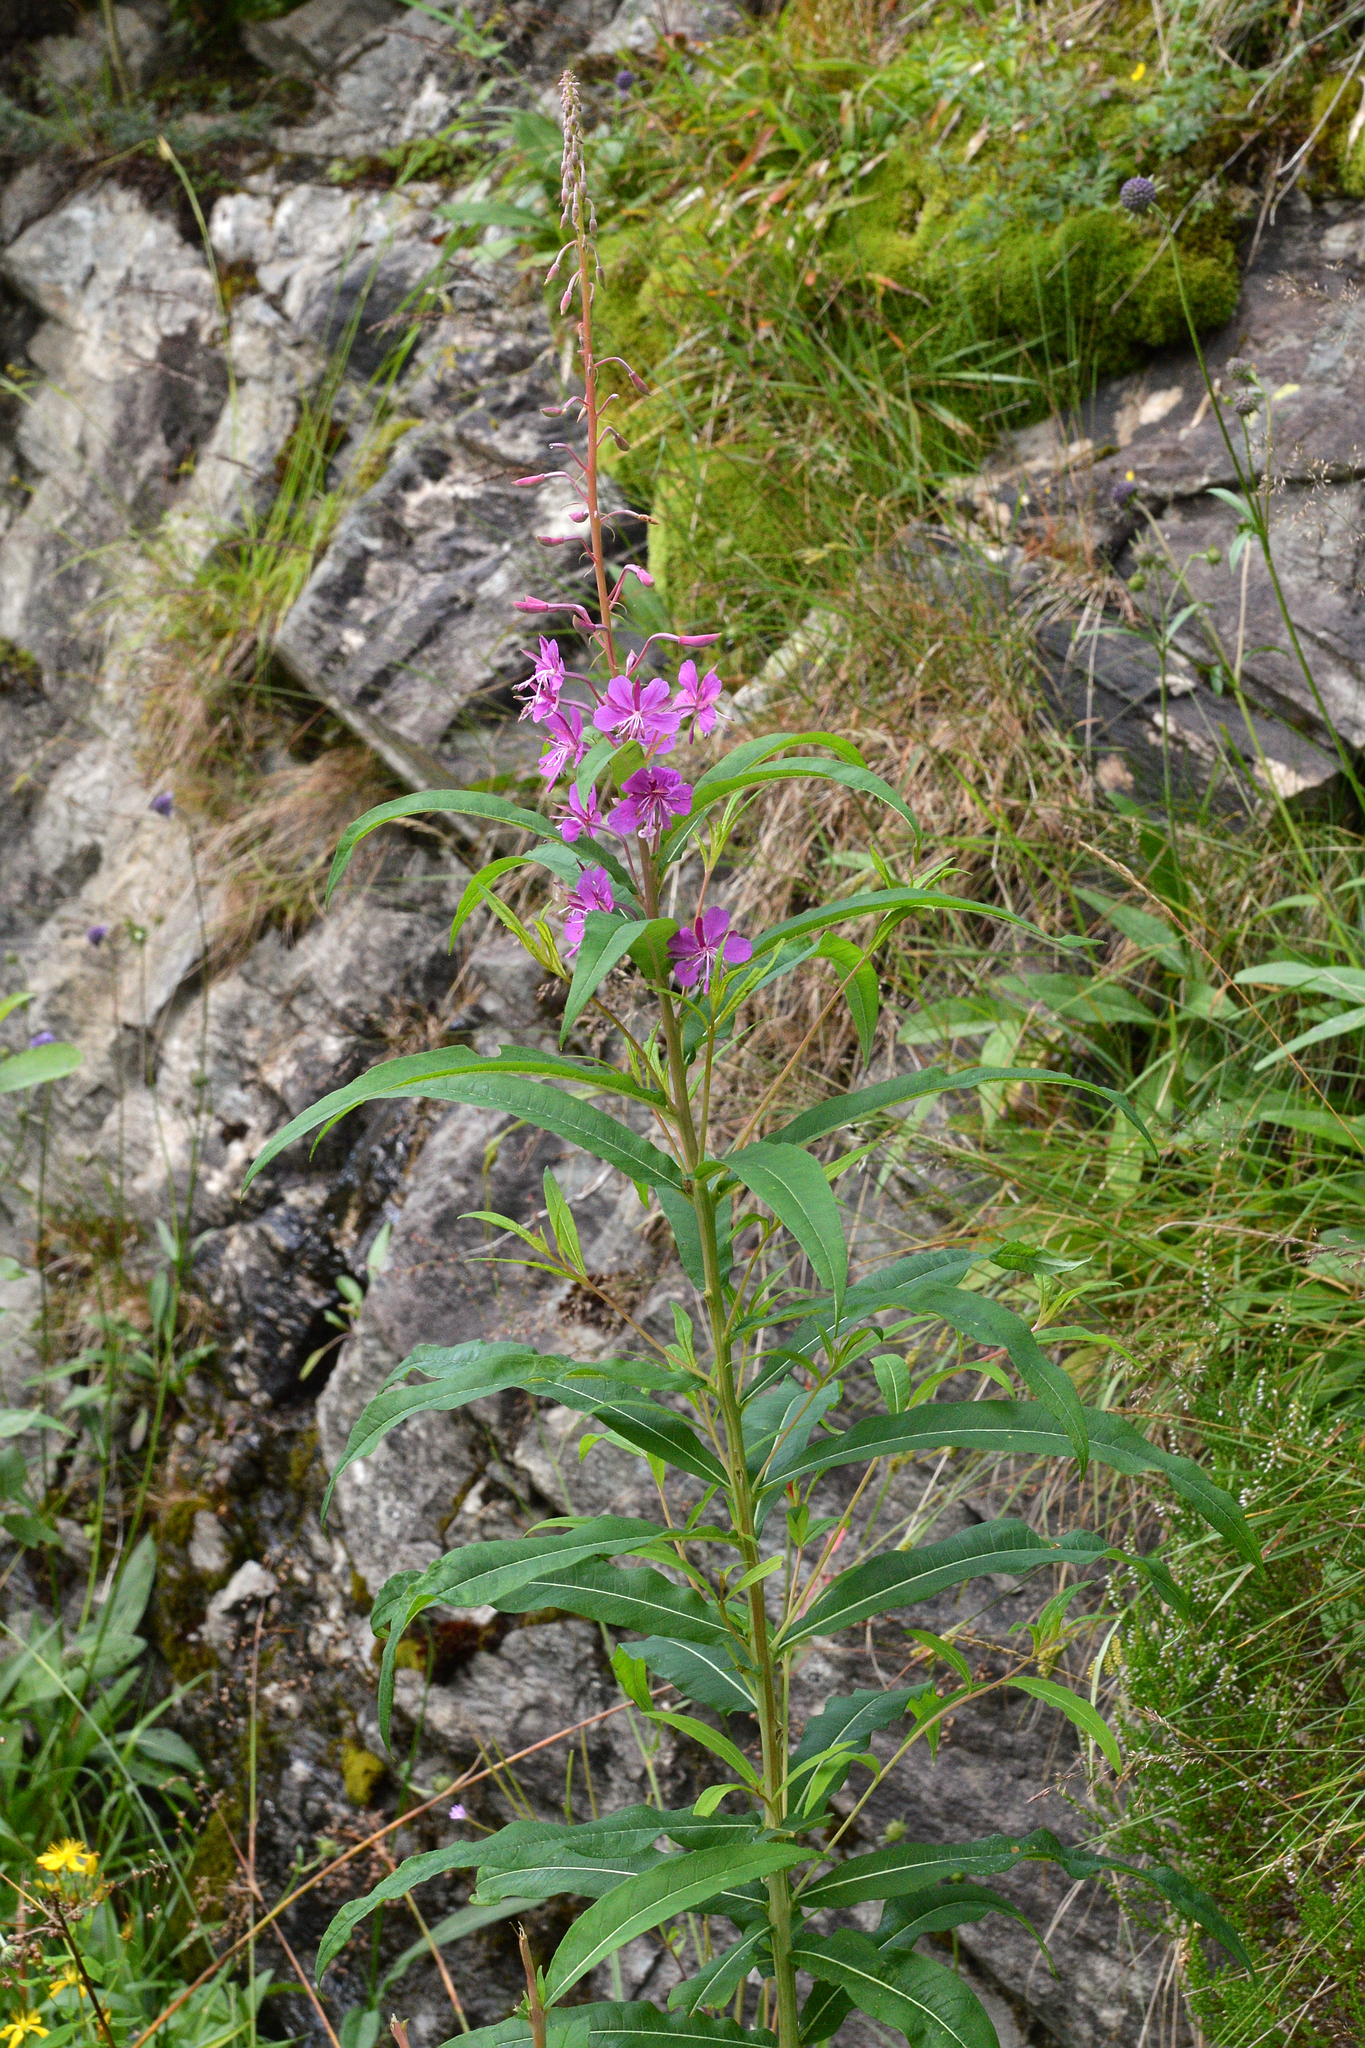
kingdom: Plantae
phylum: Tracheophyta
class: Magnoliopsida
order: Myrtales
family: Onagraceae
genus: Chamaenerion
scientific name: Chamaenerion angustifolium
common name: Fireweed
